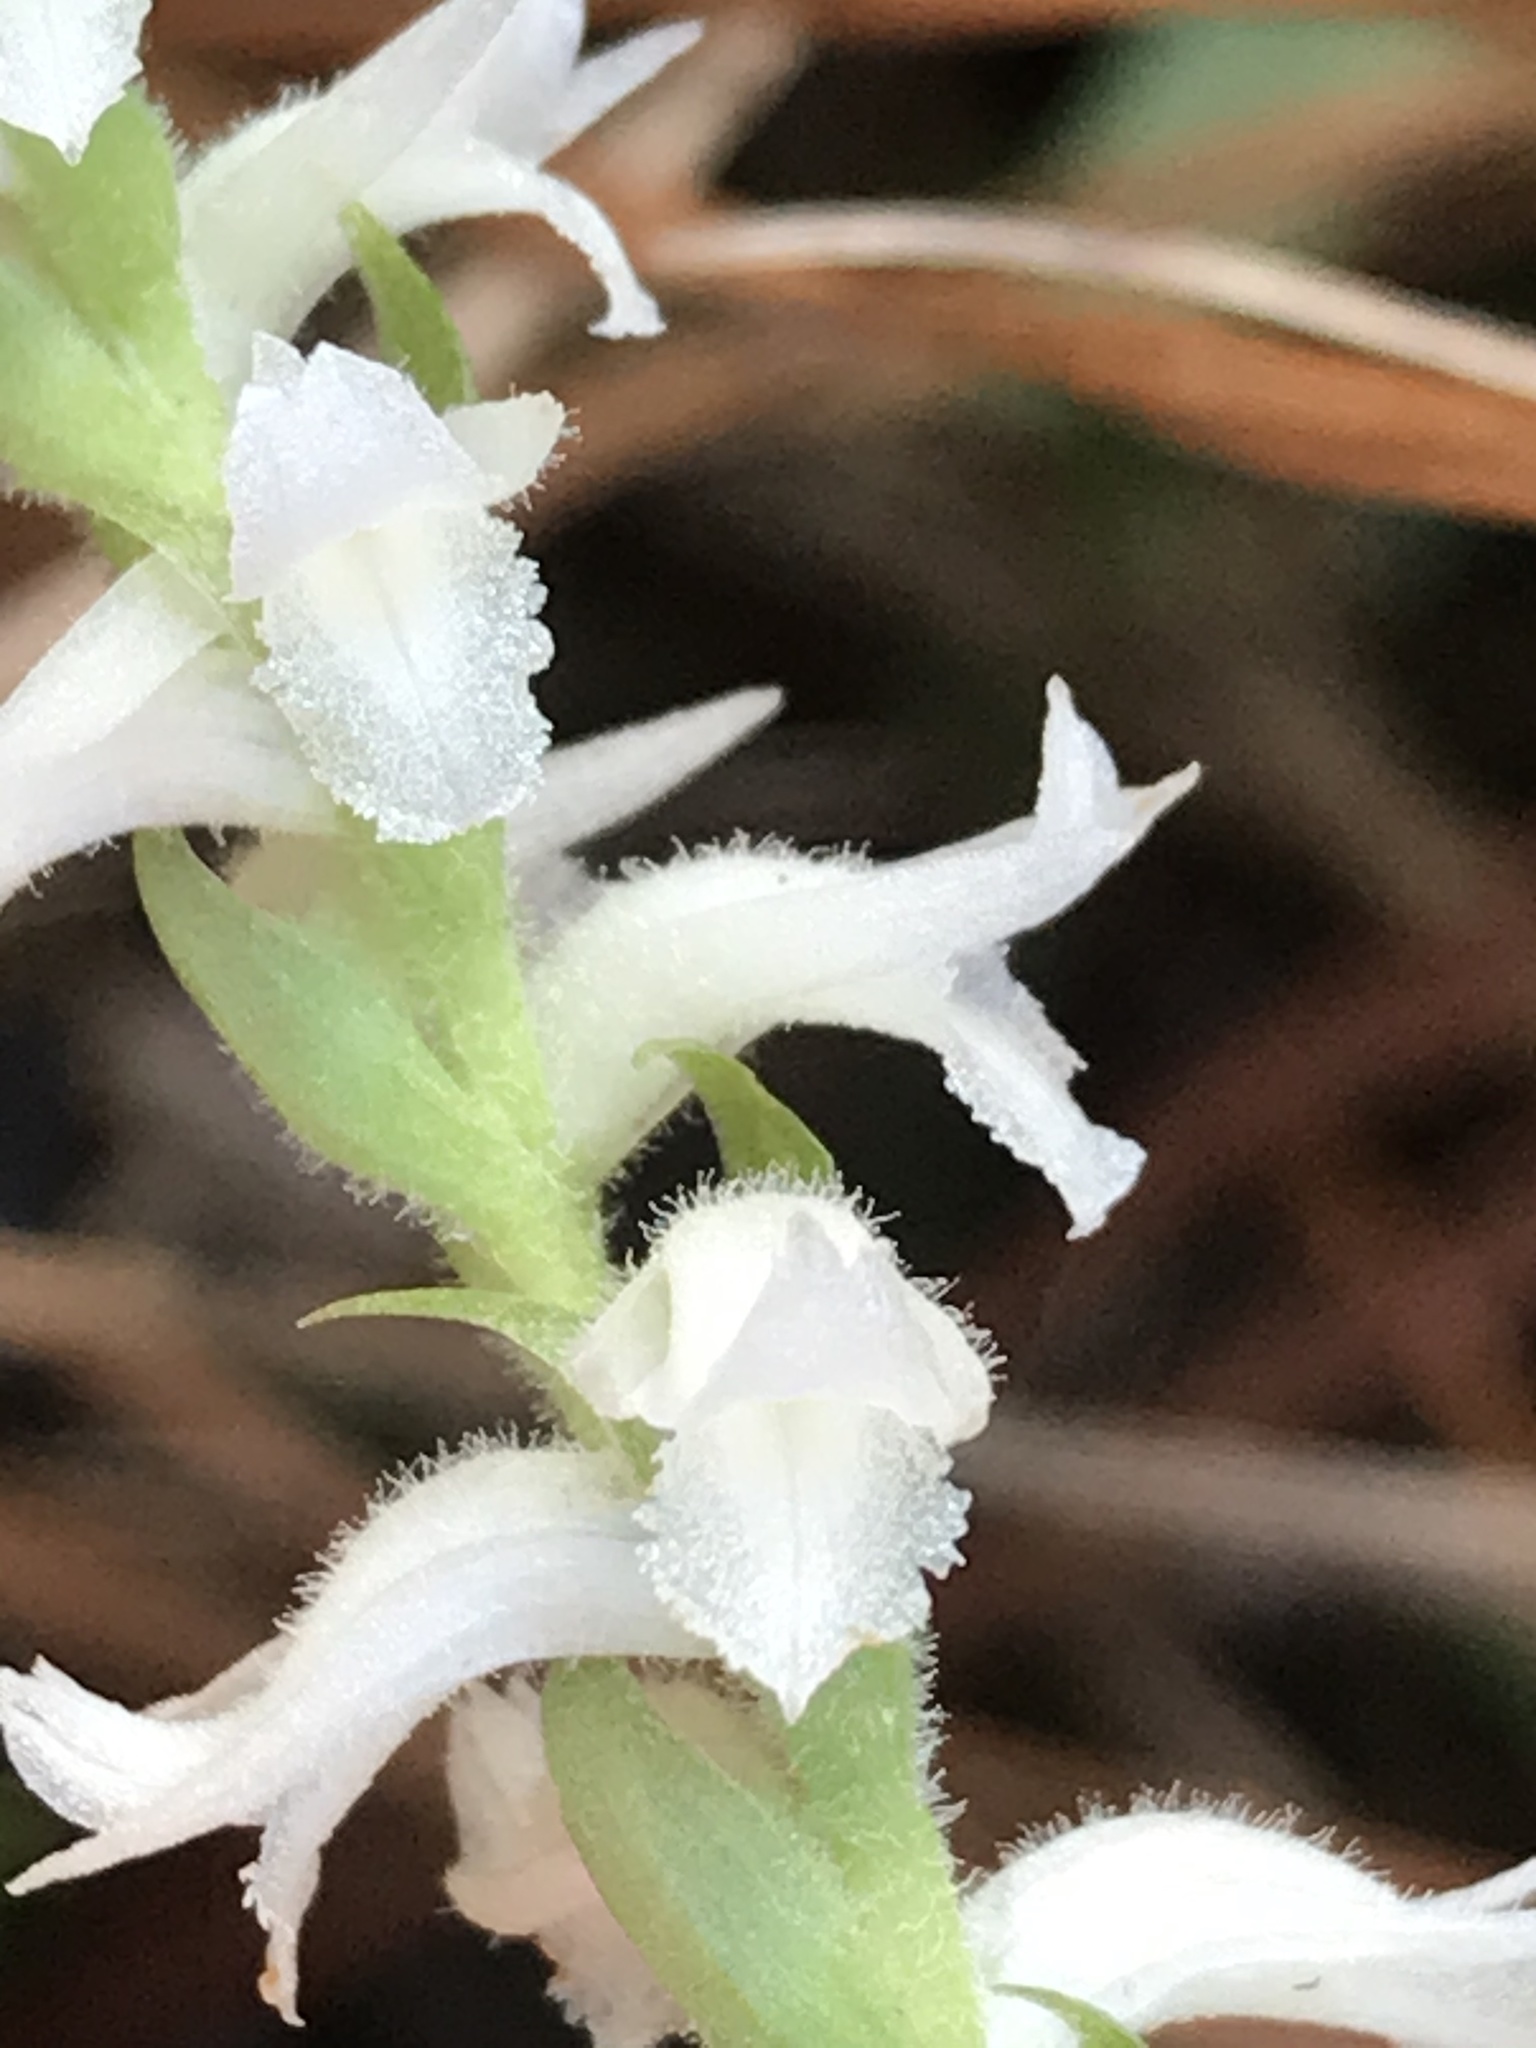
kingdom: Plantae
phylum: Tracheophyta
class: Liliopsida
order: Asparagales
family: Orchidaceae
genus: Spiranthes
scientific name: Spiranthes cernua
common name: Dropping ladies'-tresses
